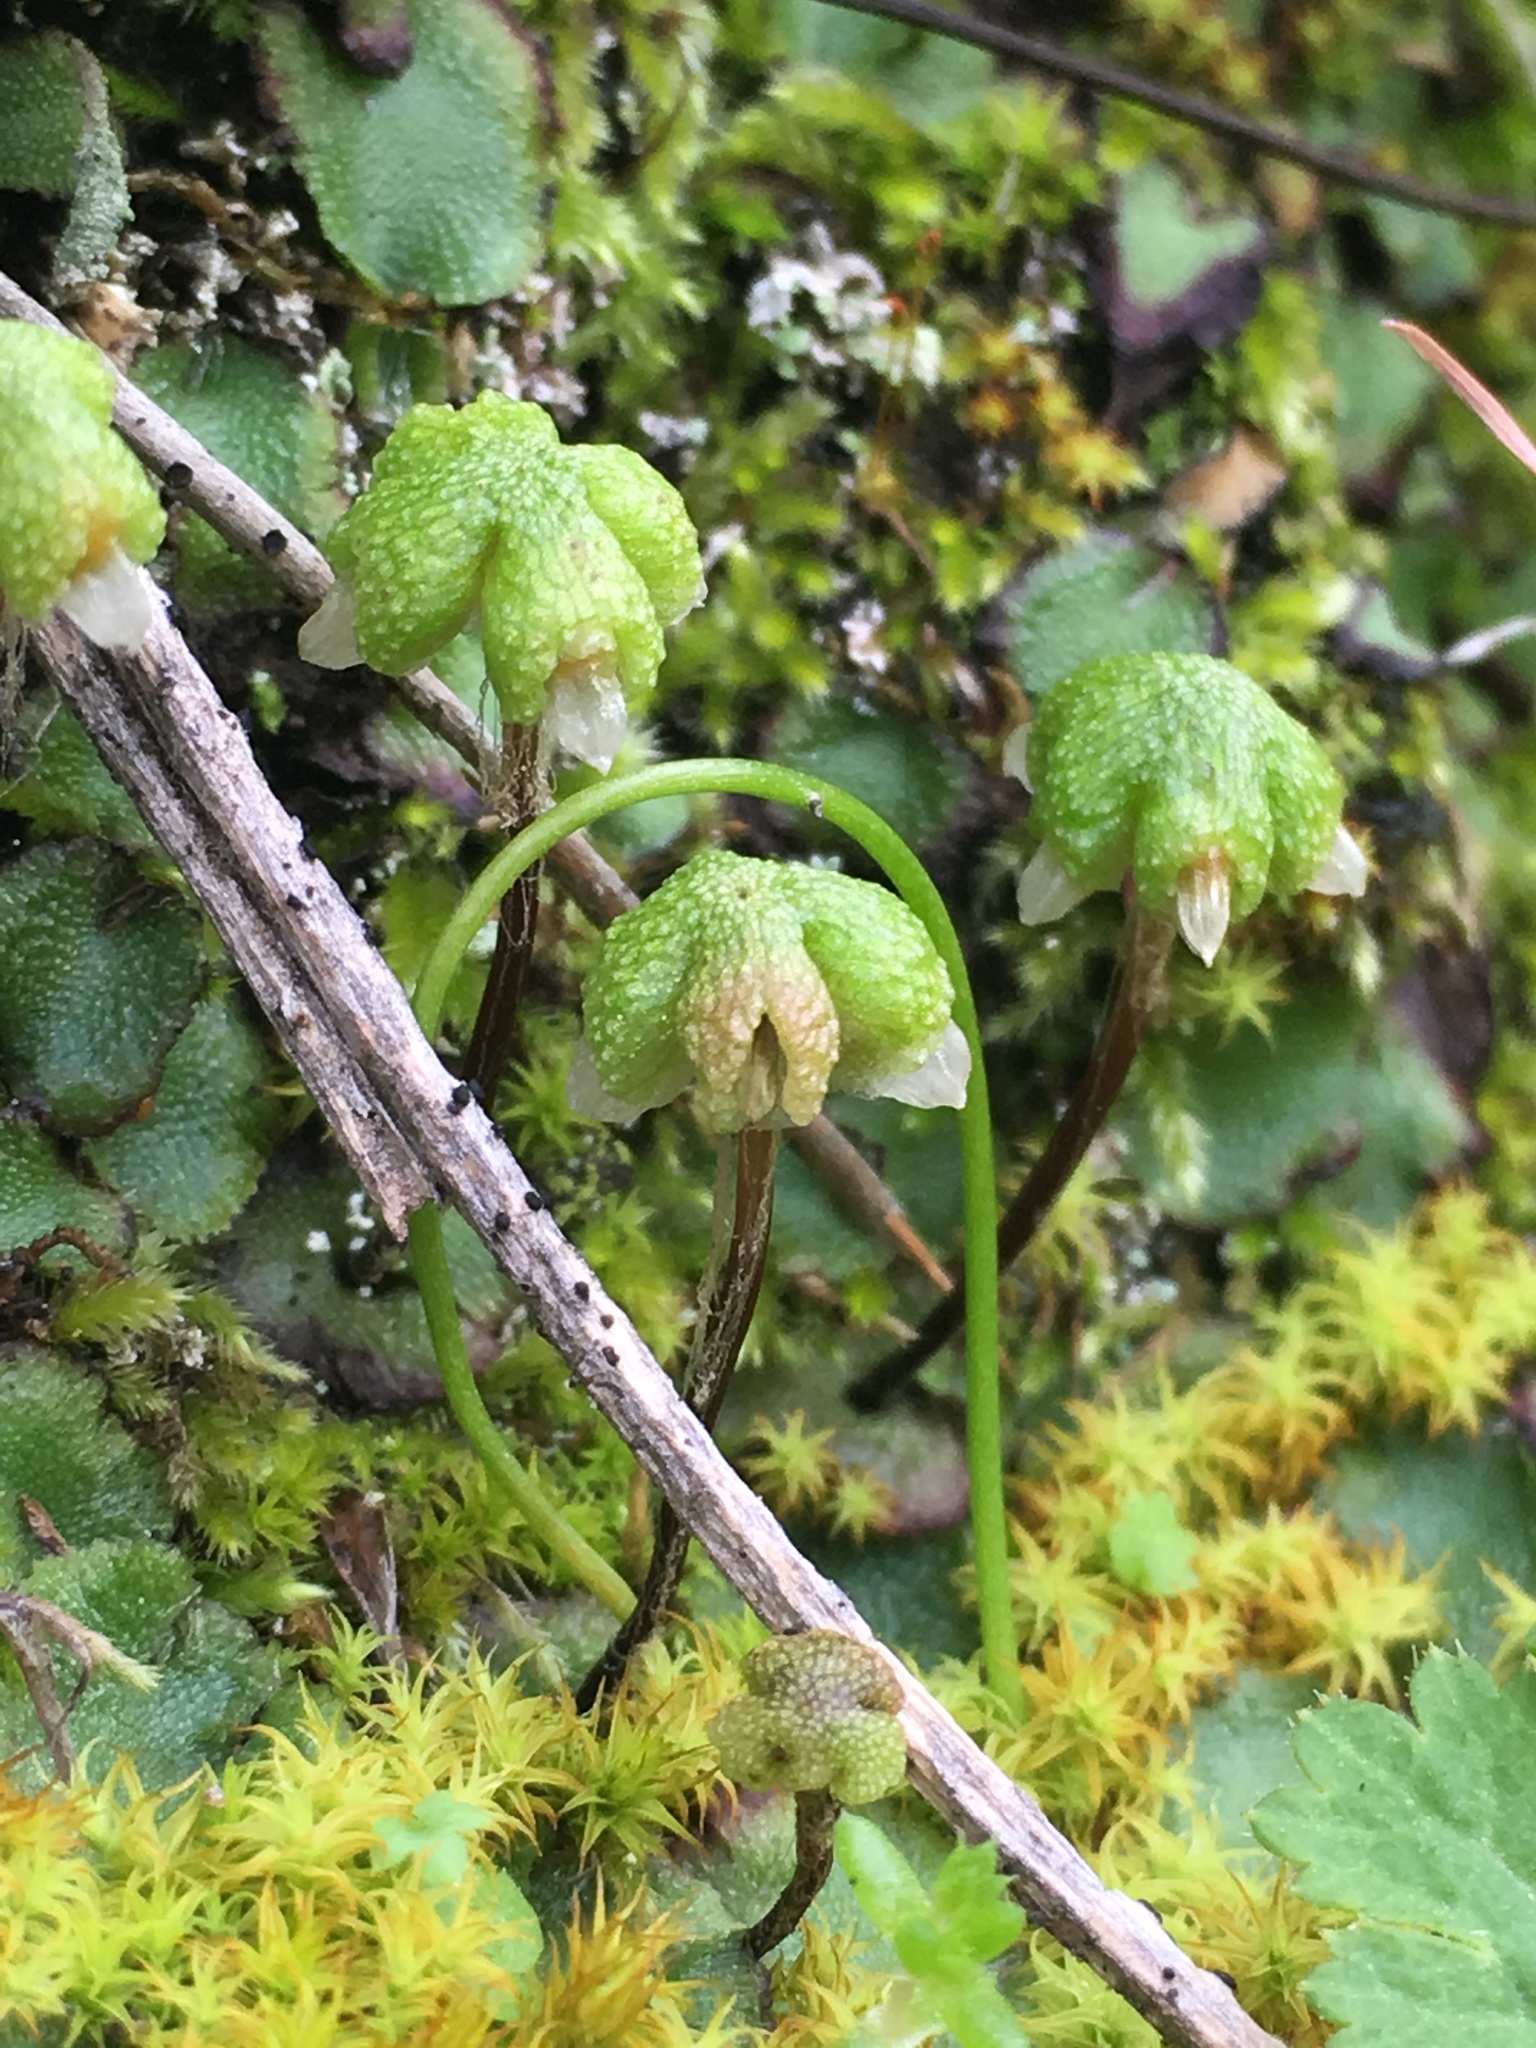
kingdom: Plantae
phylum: Marchantiophyta
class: Marchantiopsida
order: Marchantiales
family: Aytoniaceae
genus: Asterella
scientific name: Asterella californica
